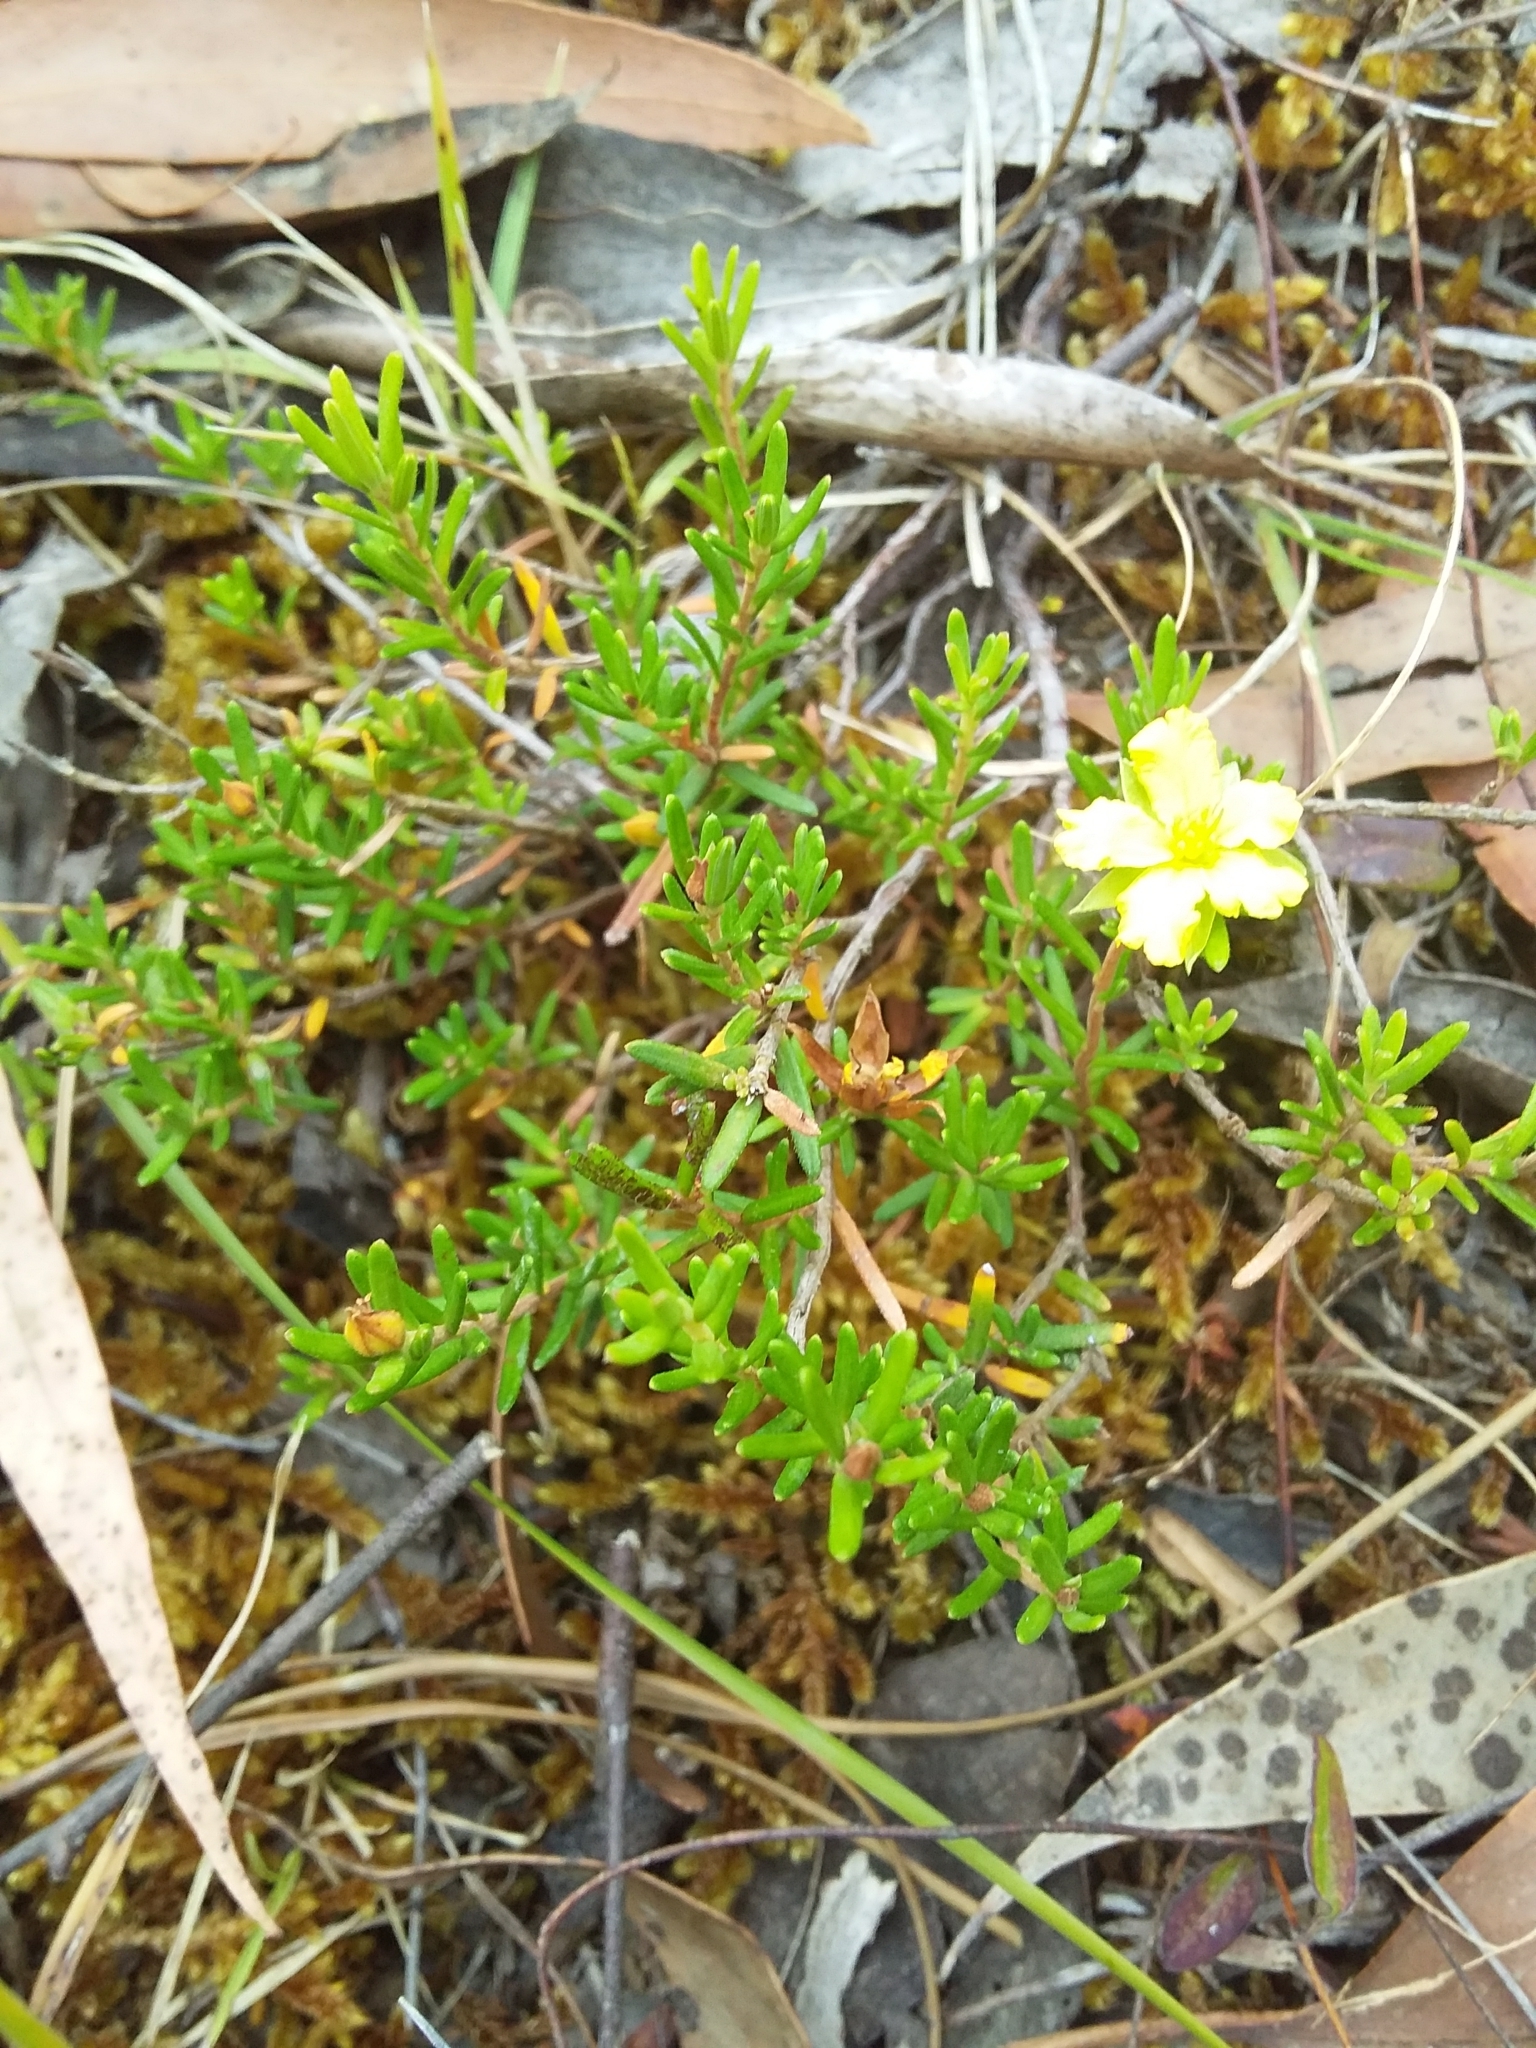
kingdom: Plantae
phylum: Tracheophyta
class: Magnoliopsida
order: Dilleniales
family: Dilleniaceae
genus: Hibbertia
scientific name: Hibbertia riparia
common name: Erect guinea-flower
